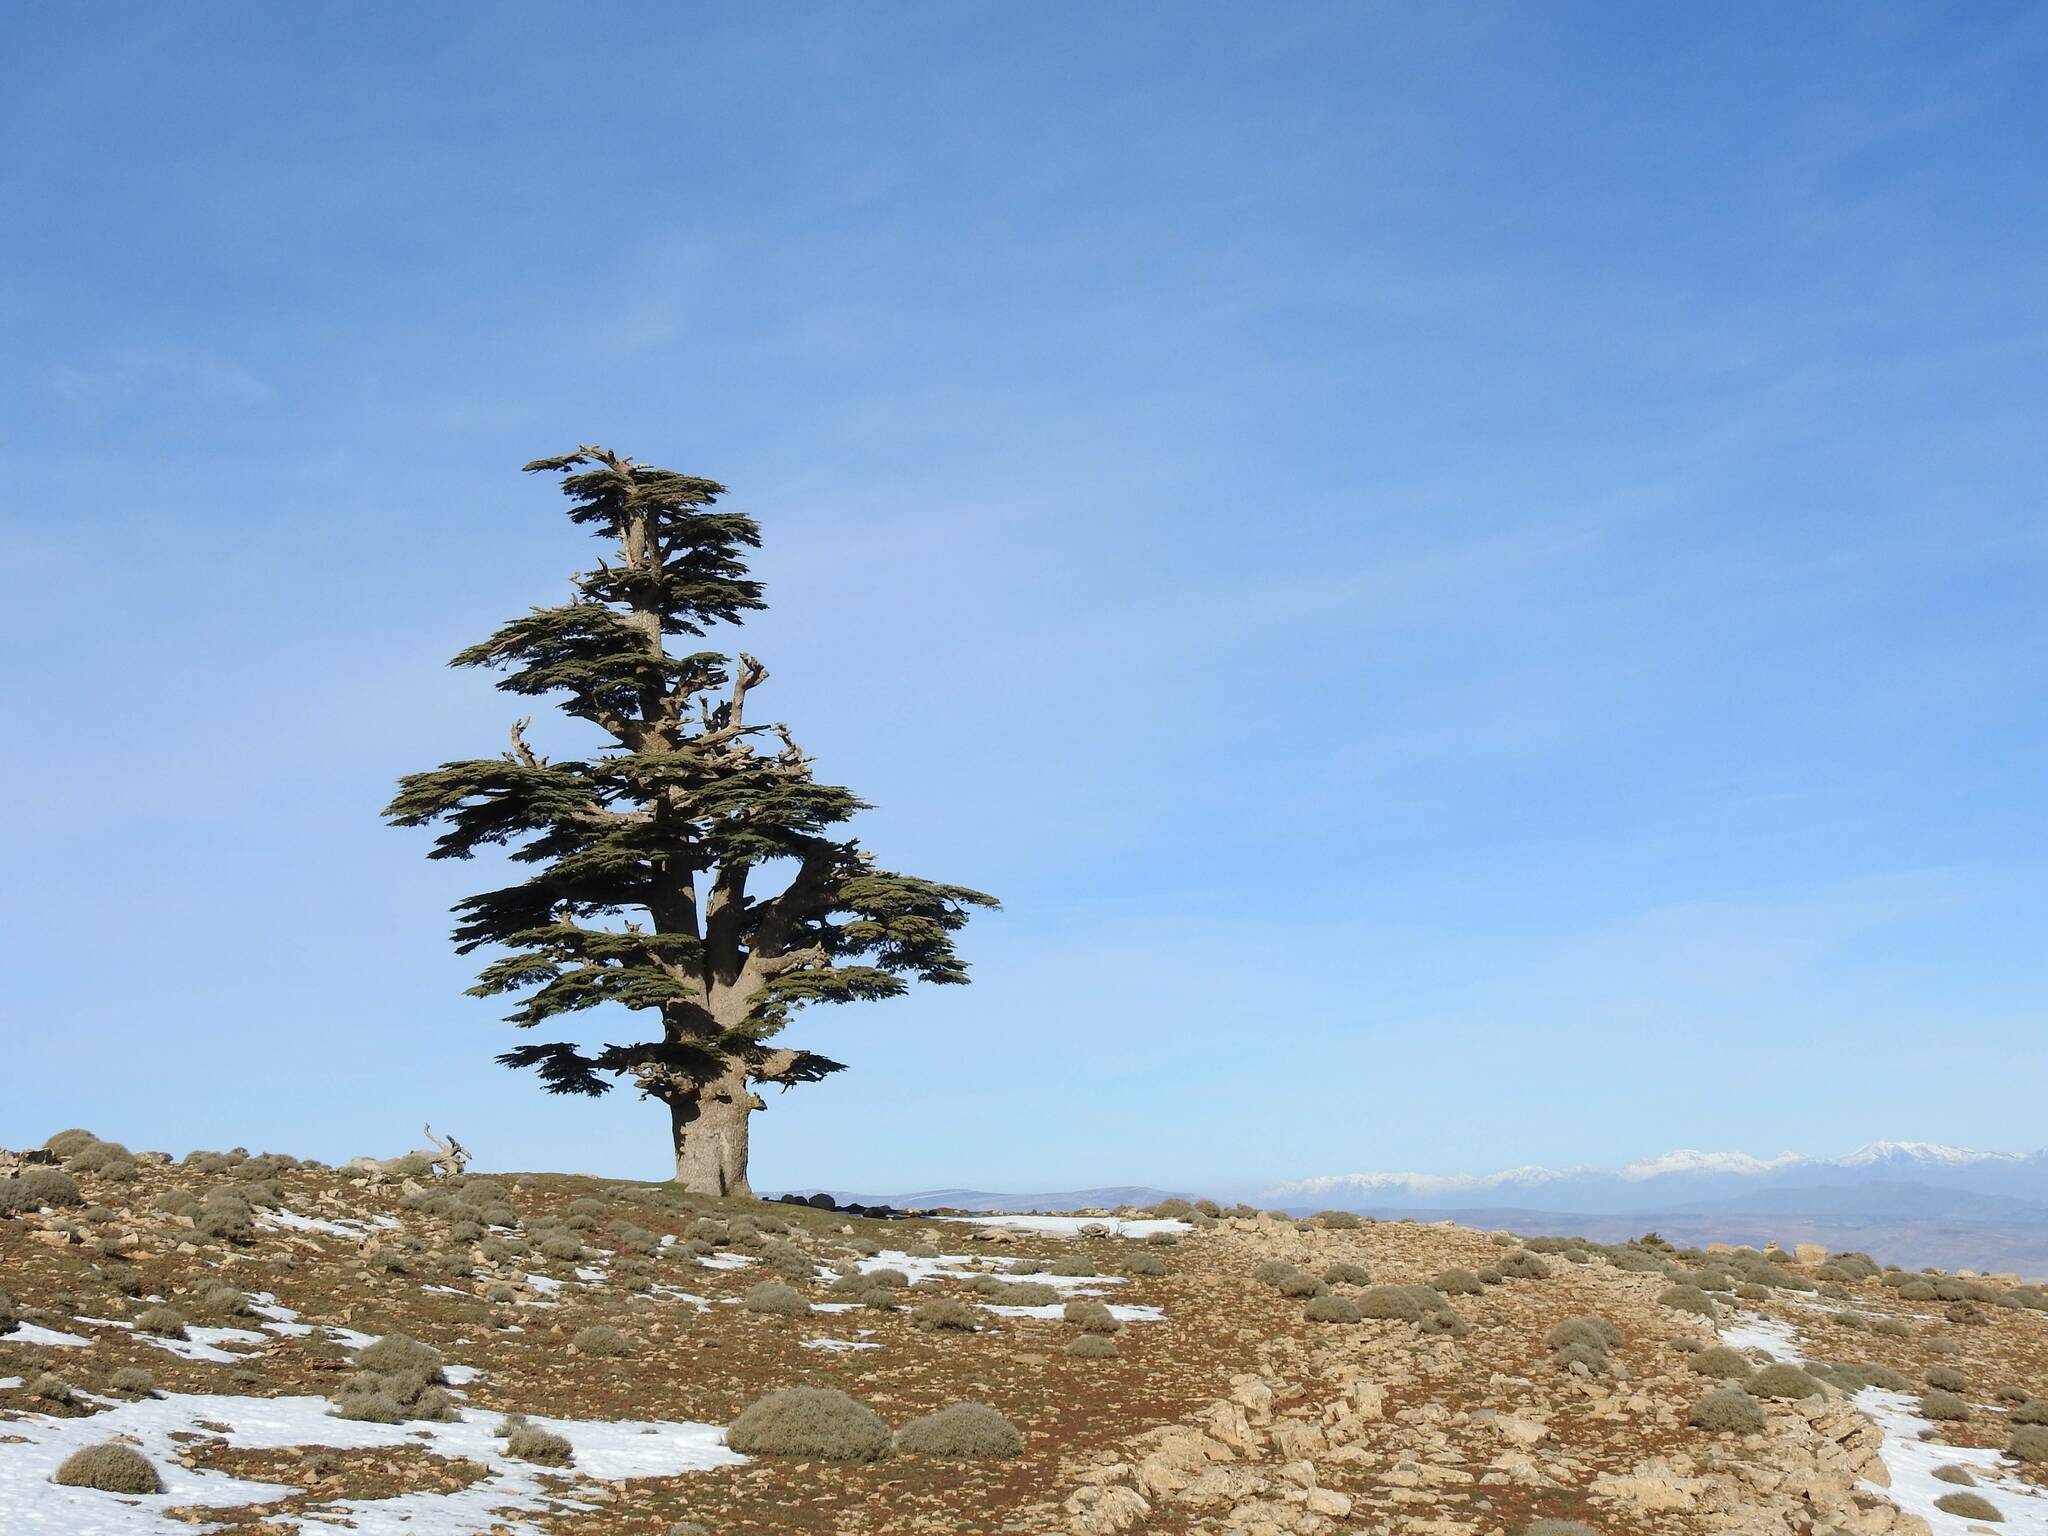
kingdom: Plantae
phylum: Tracheophyta
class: Pinopsida
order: Pinales
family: Pinaceae
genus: Cedrus
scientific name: Cedrus atlantica
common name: Atlas cedar
